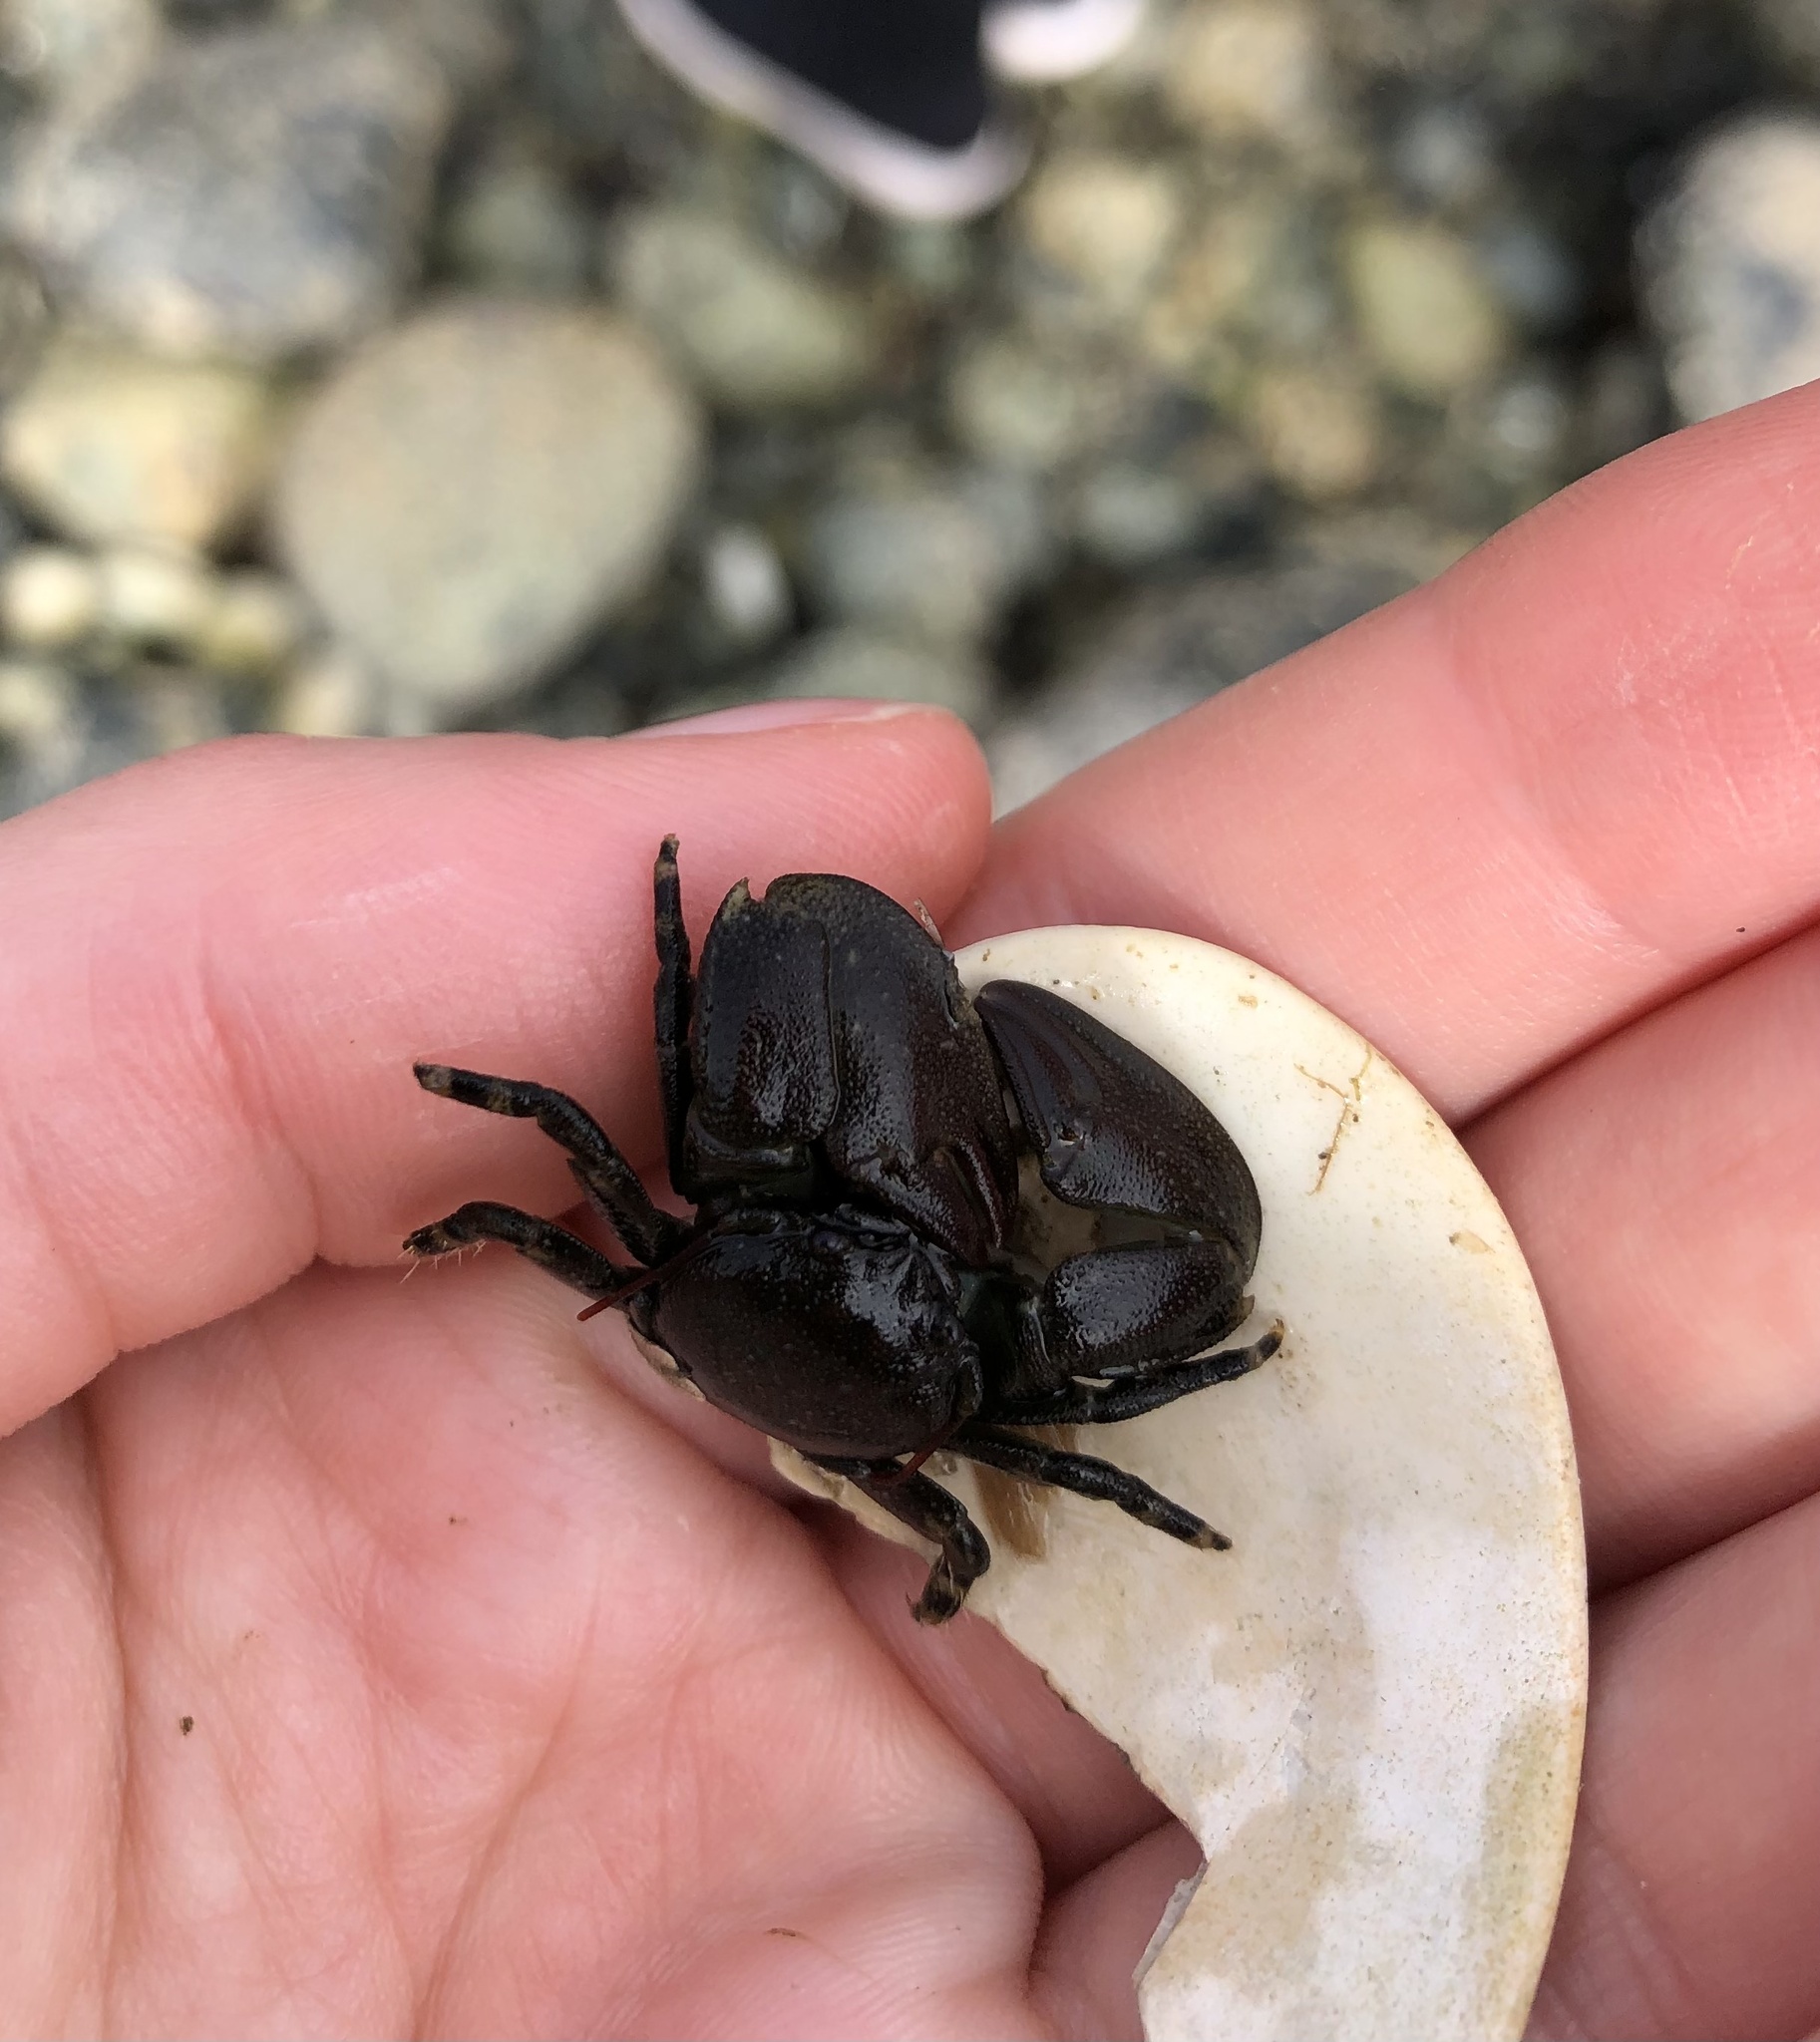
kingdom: Animalia
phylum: Arthropoda
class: Malacostraca
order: Decapoda
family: Porcellanidae
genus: Petrolisthes
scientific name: Petrolisthes cinctipes
